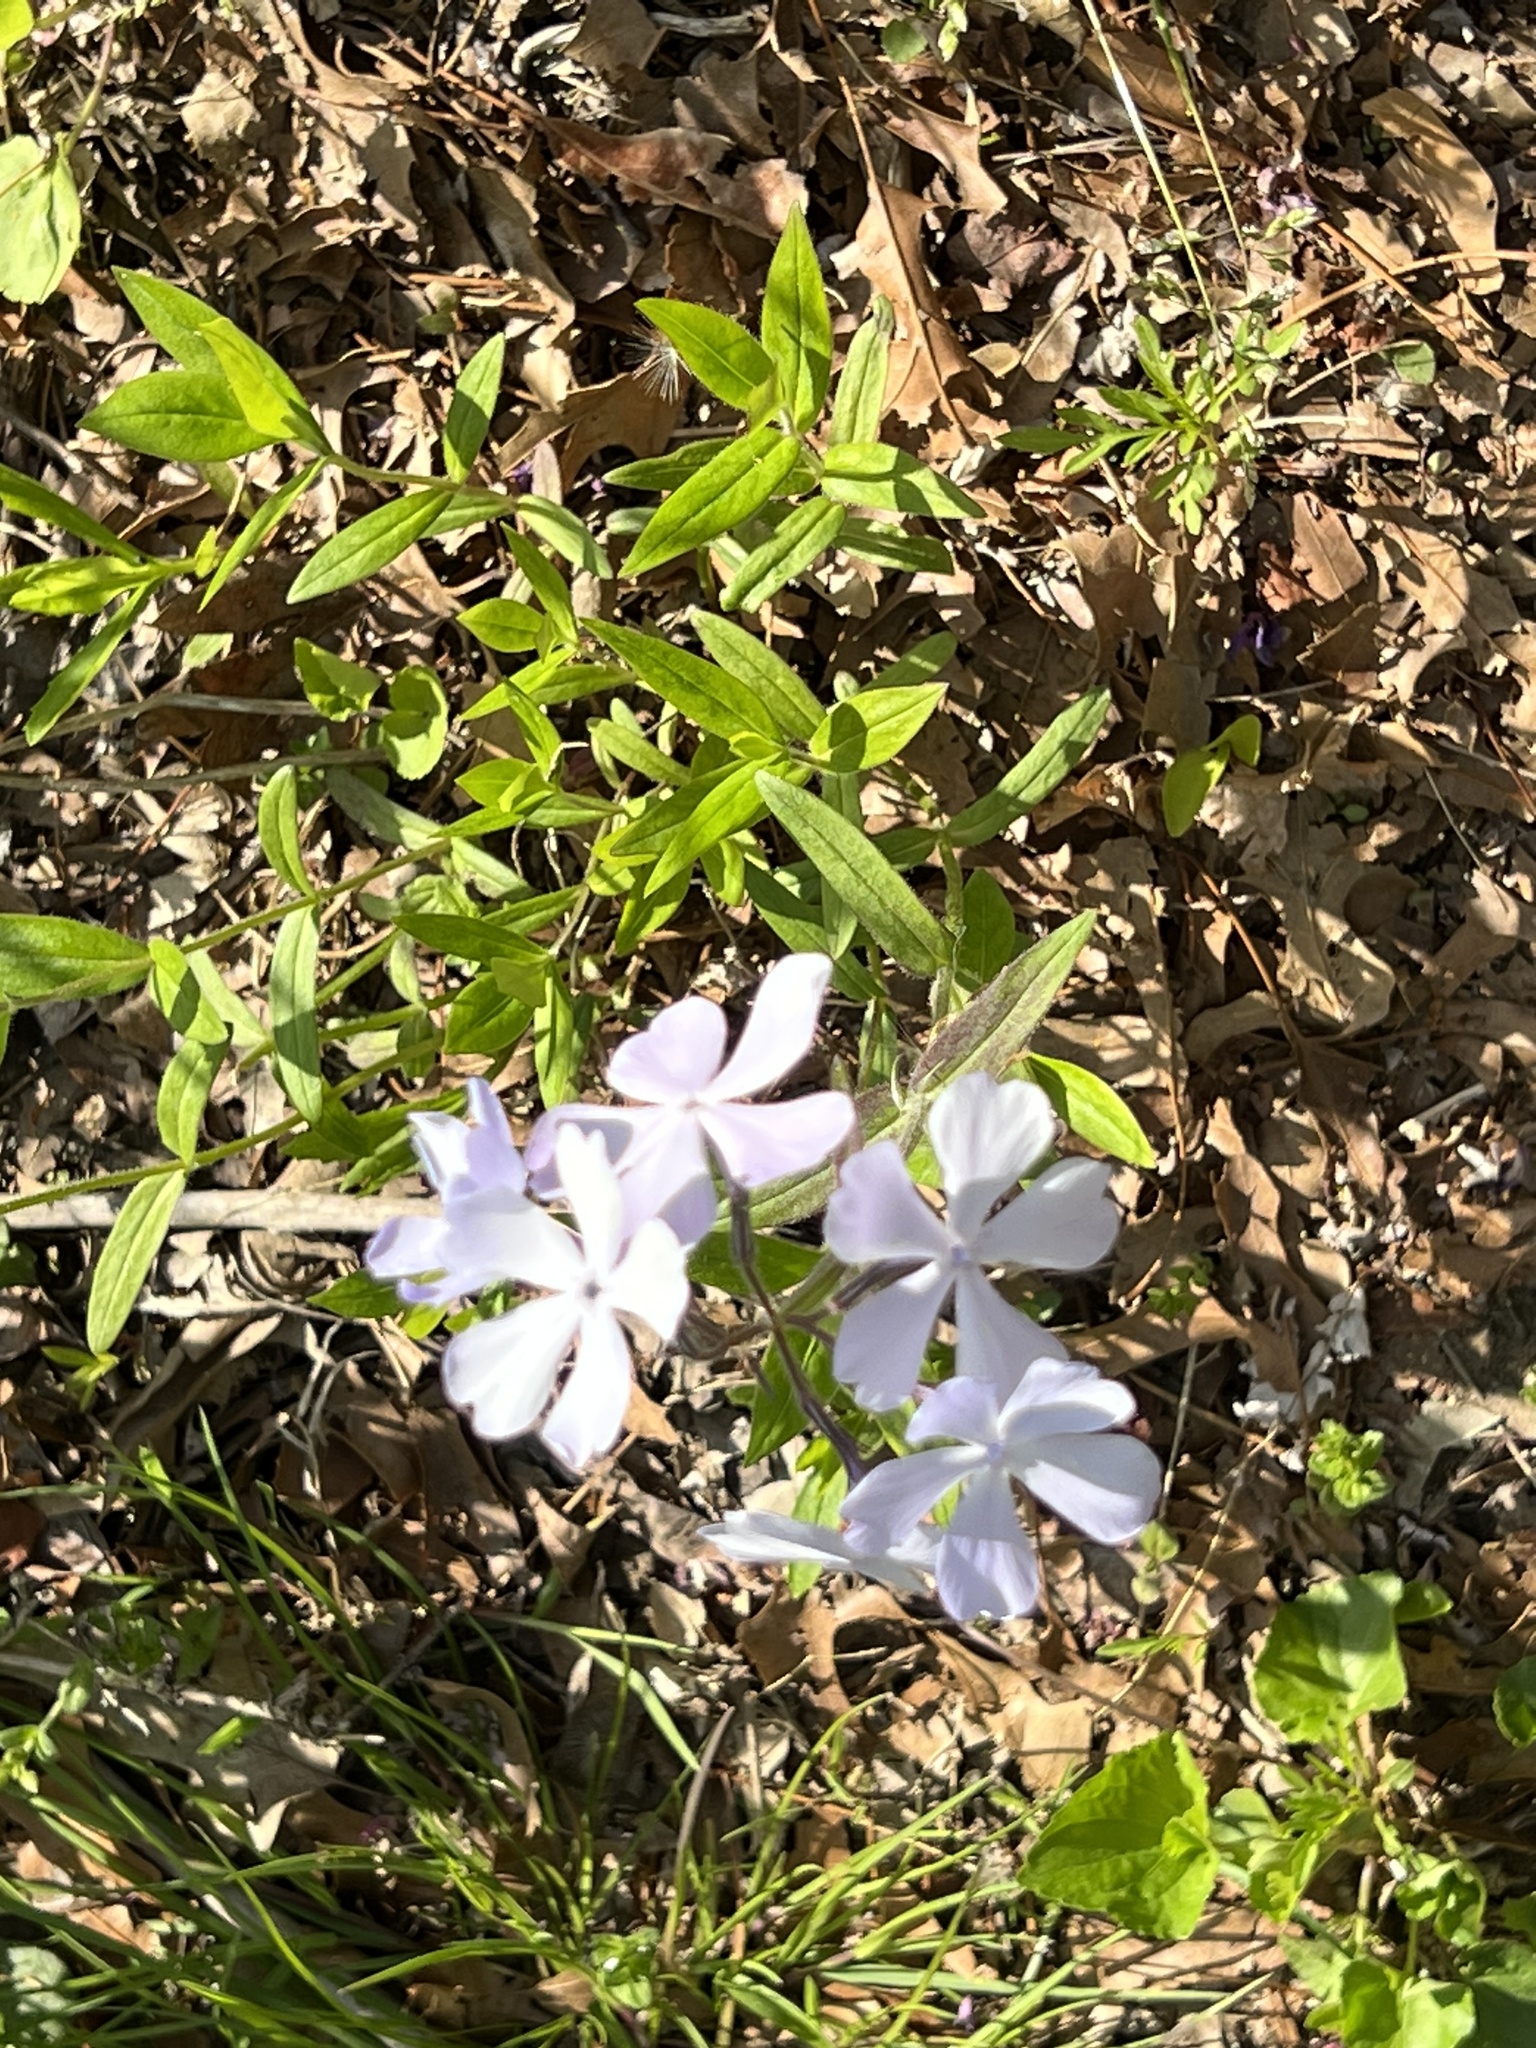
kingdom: Plantae
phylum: Tracheophyta
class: Magnoliopsida
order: Ericales
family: Polemoniaceae
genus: Phlox
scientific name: Phlox divaricata
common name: Blue phlox
